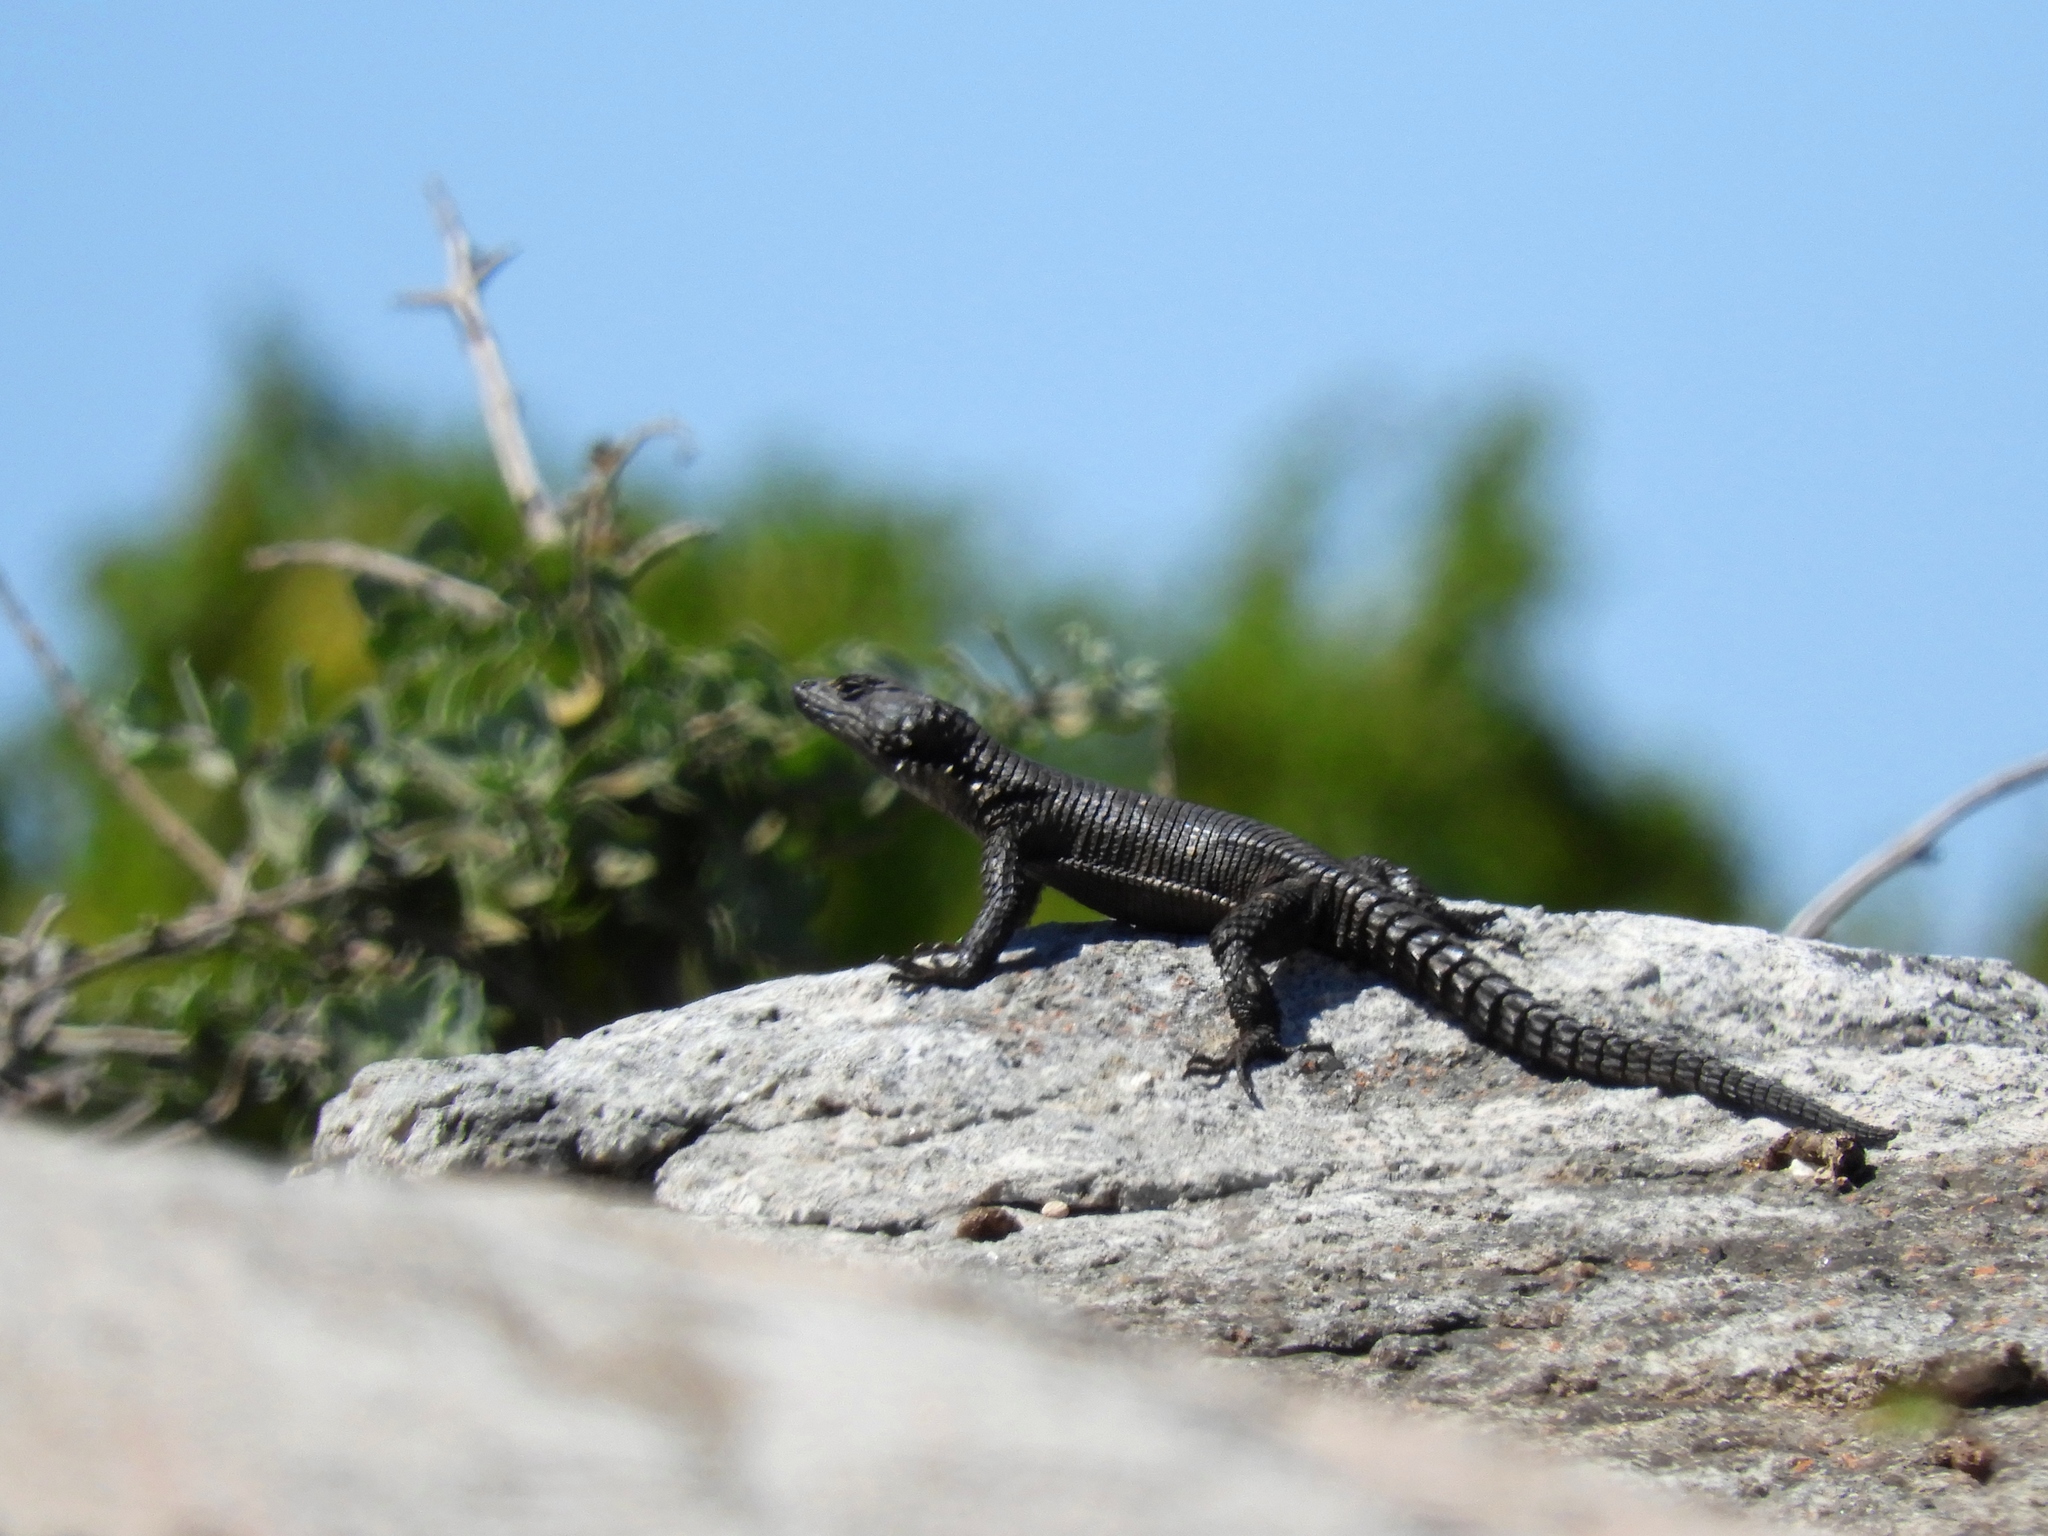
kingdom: Animalia
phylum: Chordata
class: Squamata
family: Cordylidae
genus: Karusasaurus
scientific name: Karusasaurus polyzonus
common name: Karoo girdled lizard
